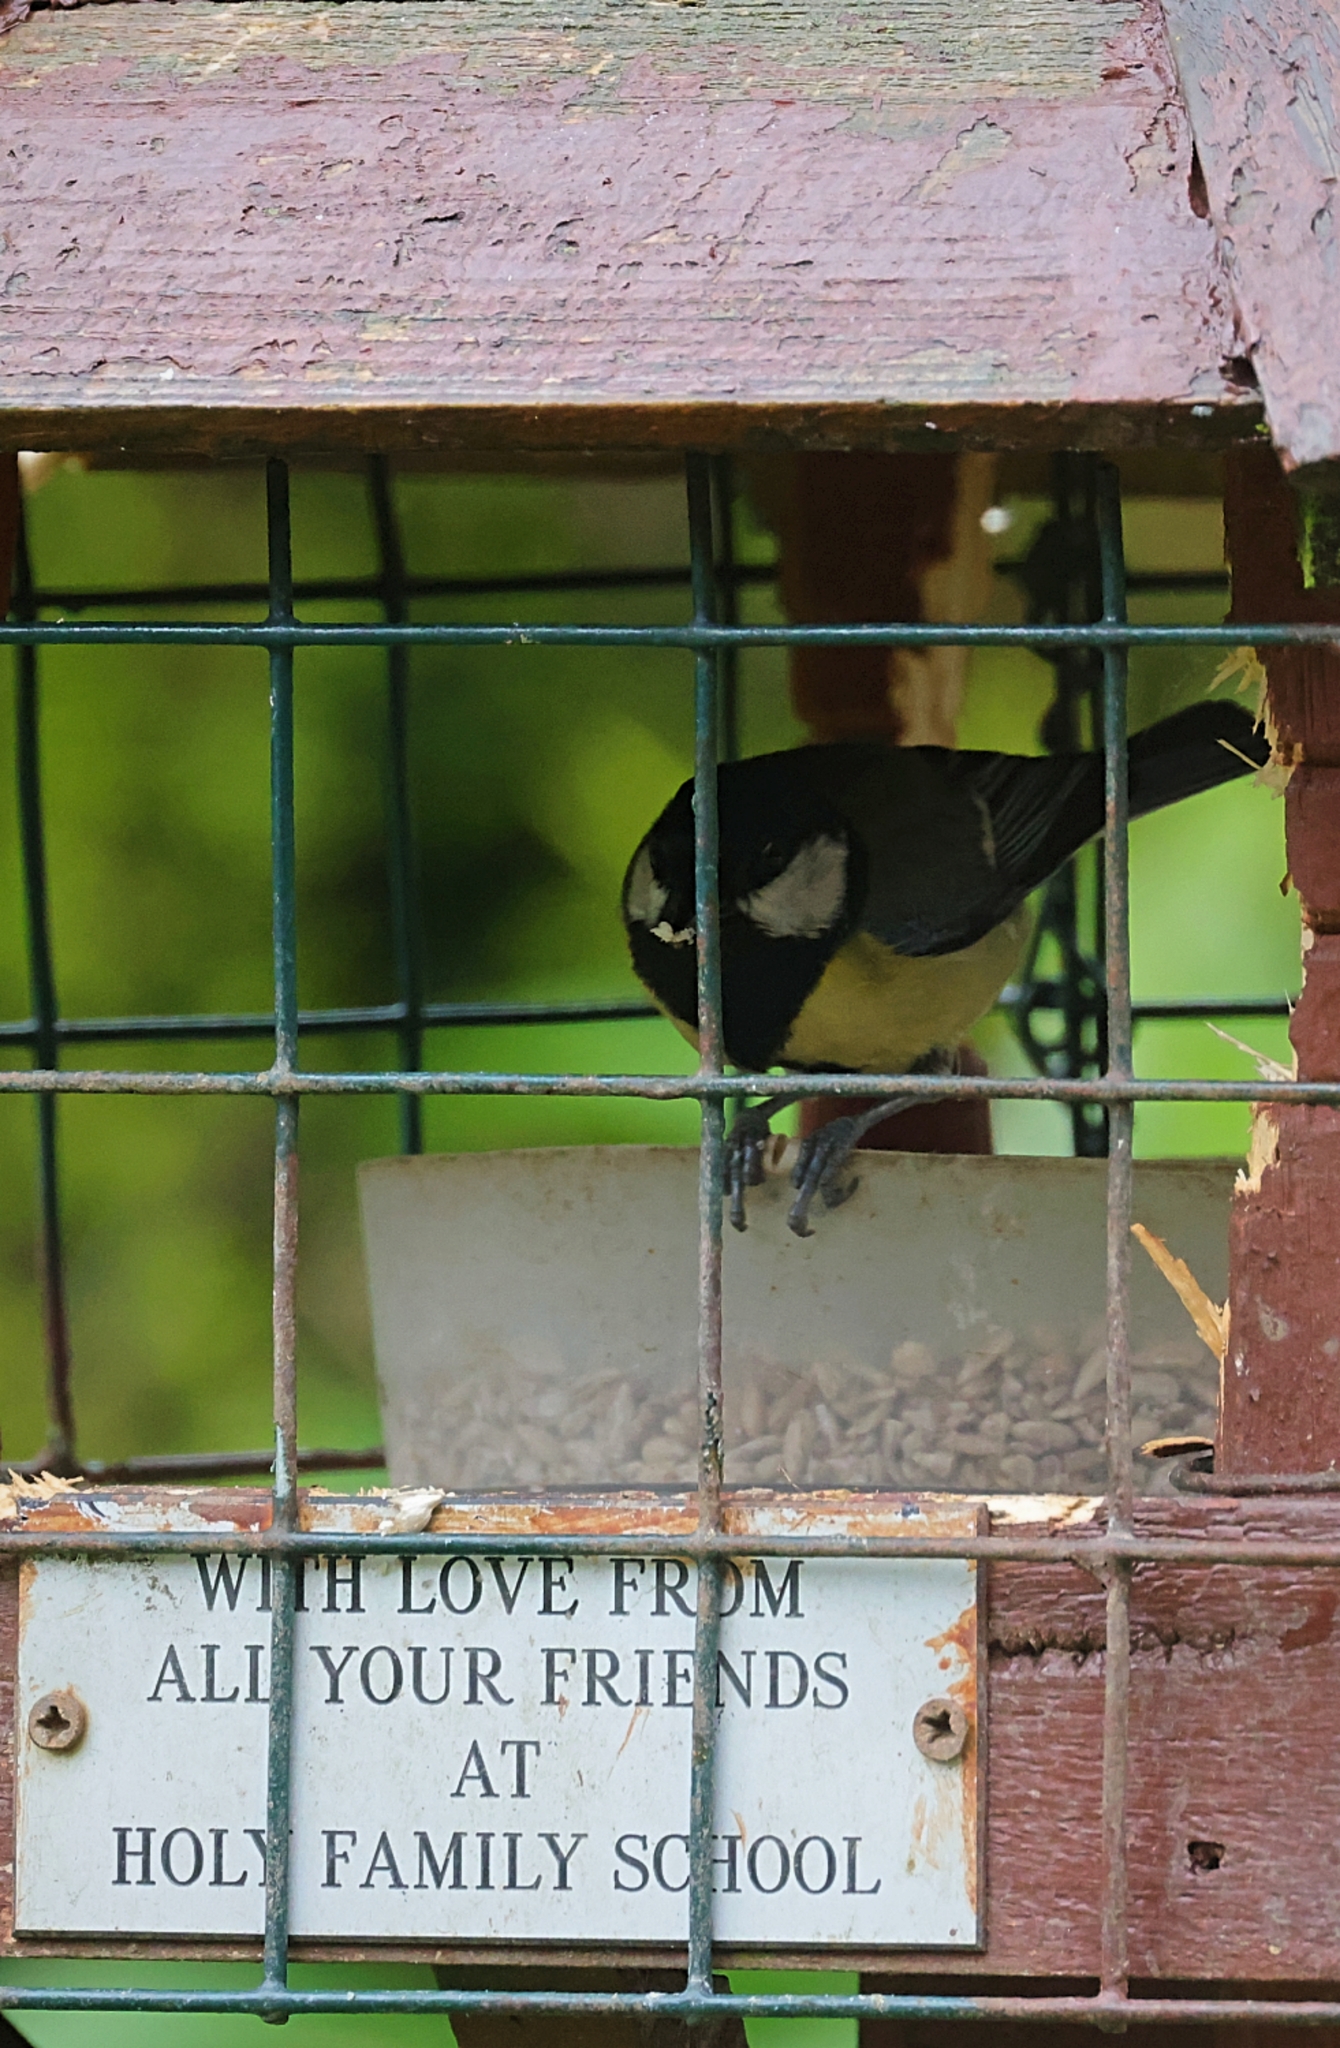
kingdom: Animalia
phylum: Chordata
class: Aves
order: Passeriformes
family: Paridae
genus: Parus
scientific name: Parus major
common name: Great tit
